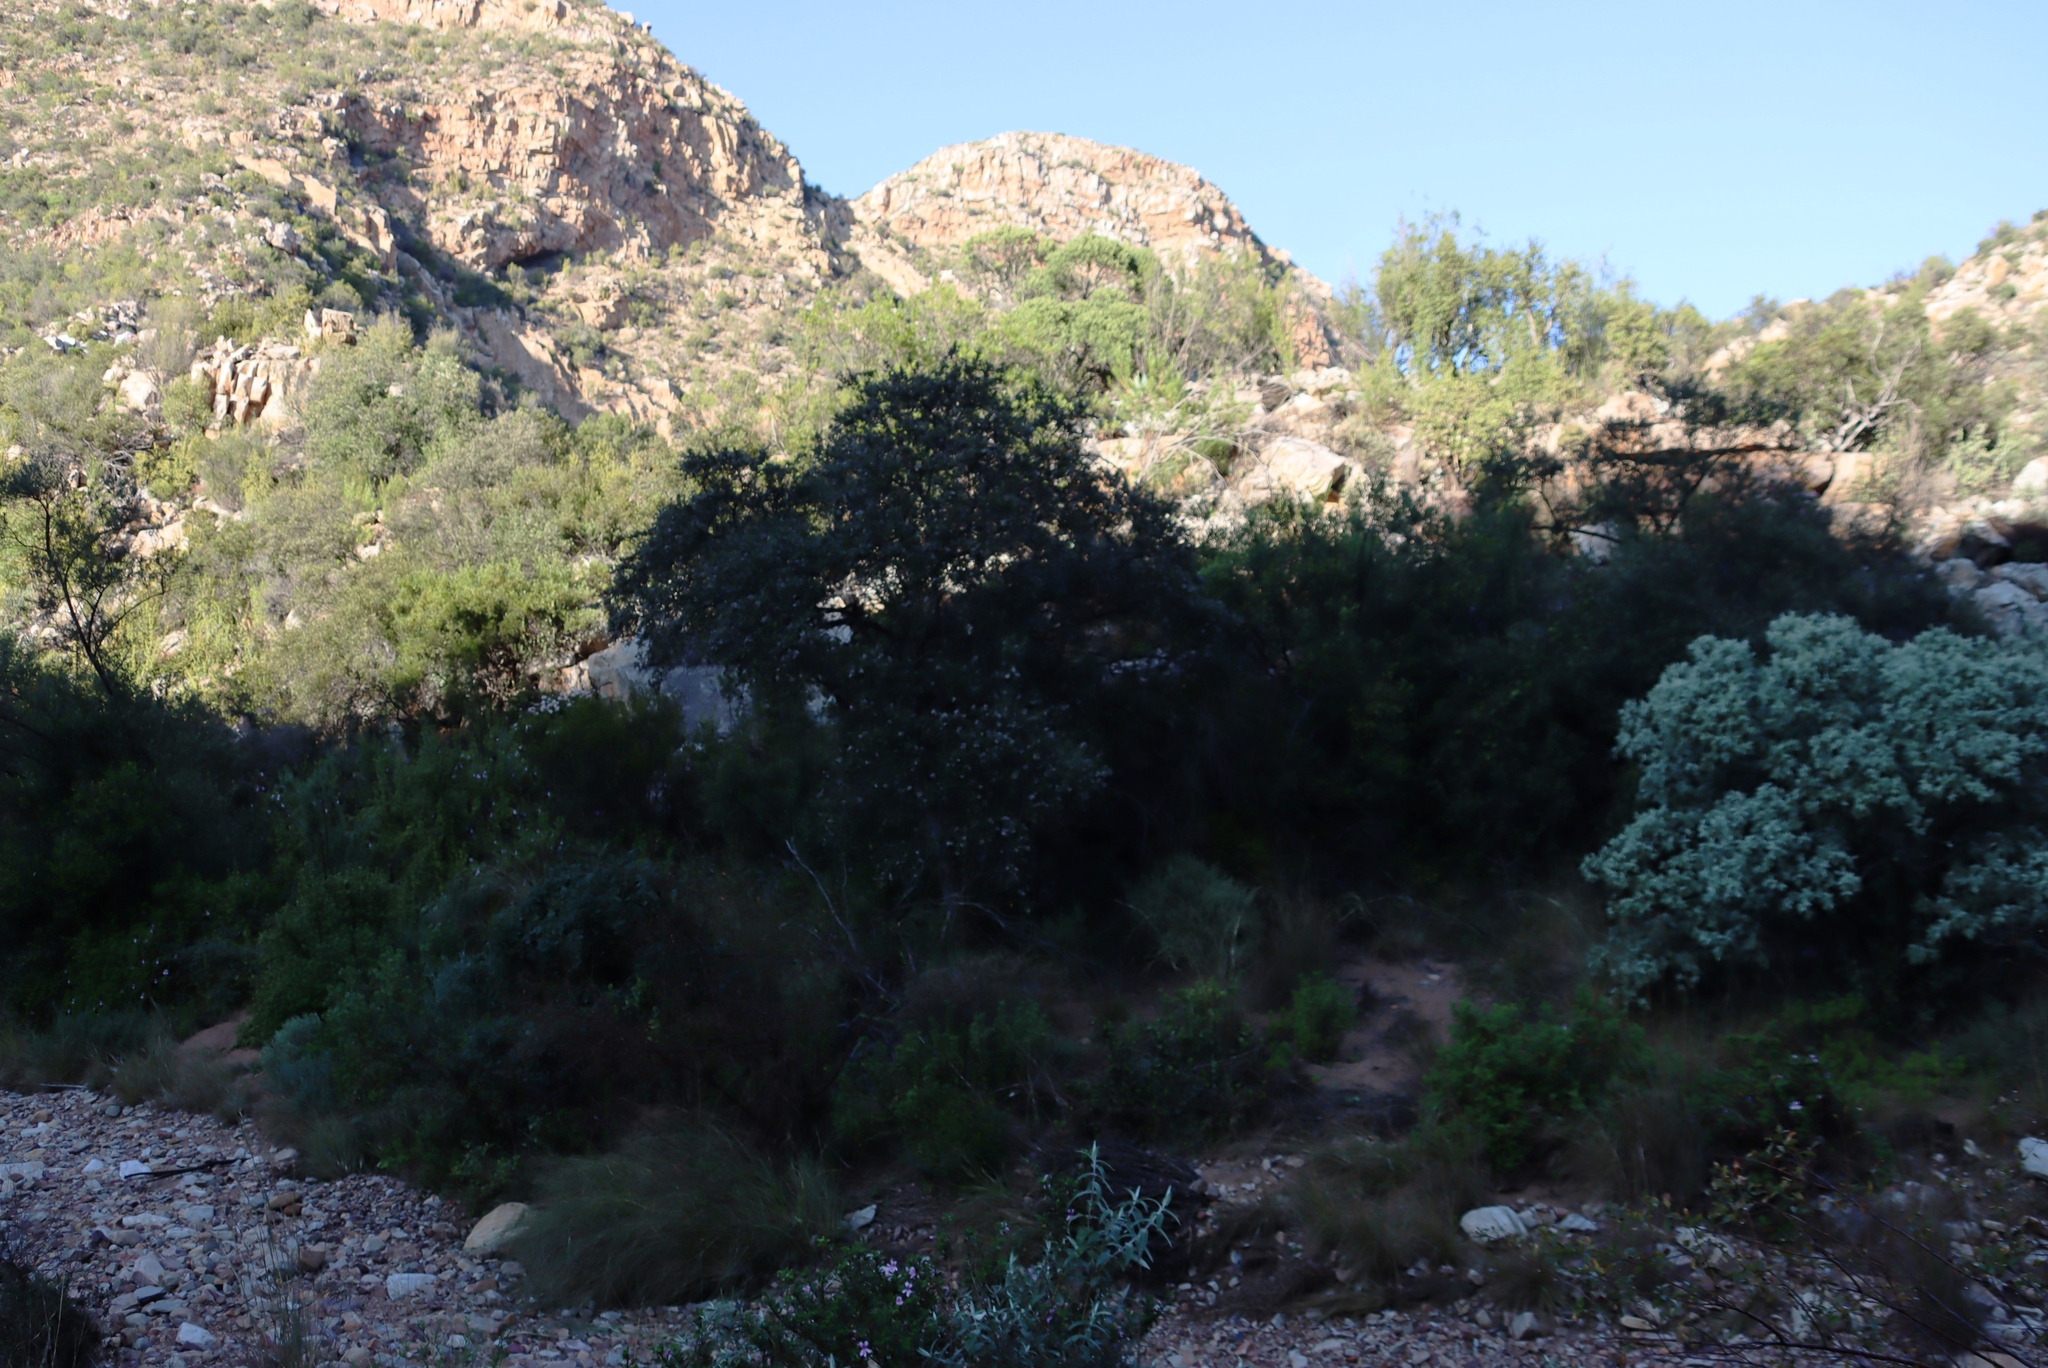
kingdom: Plantae
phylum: Tracheophyta
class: Magnoliopsida
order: Asterales
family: Asteraceae
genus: Tarchonanthus
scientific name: Tarchonanthus littoralis
